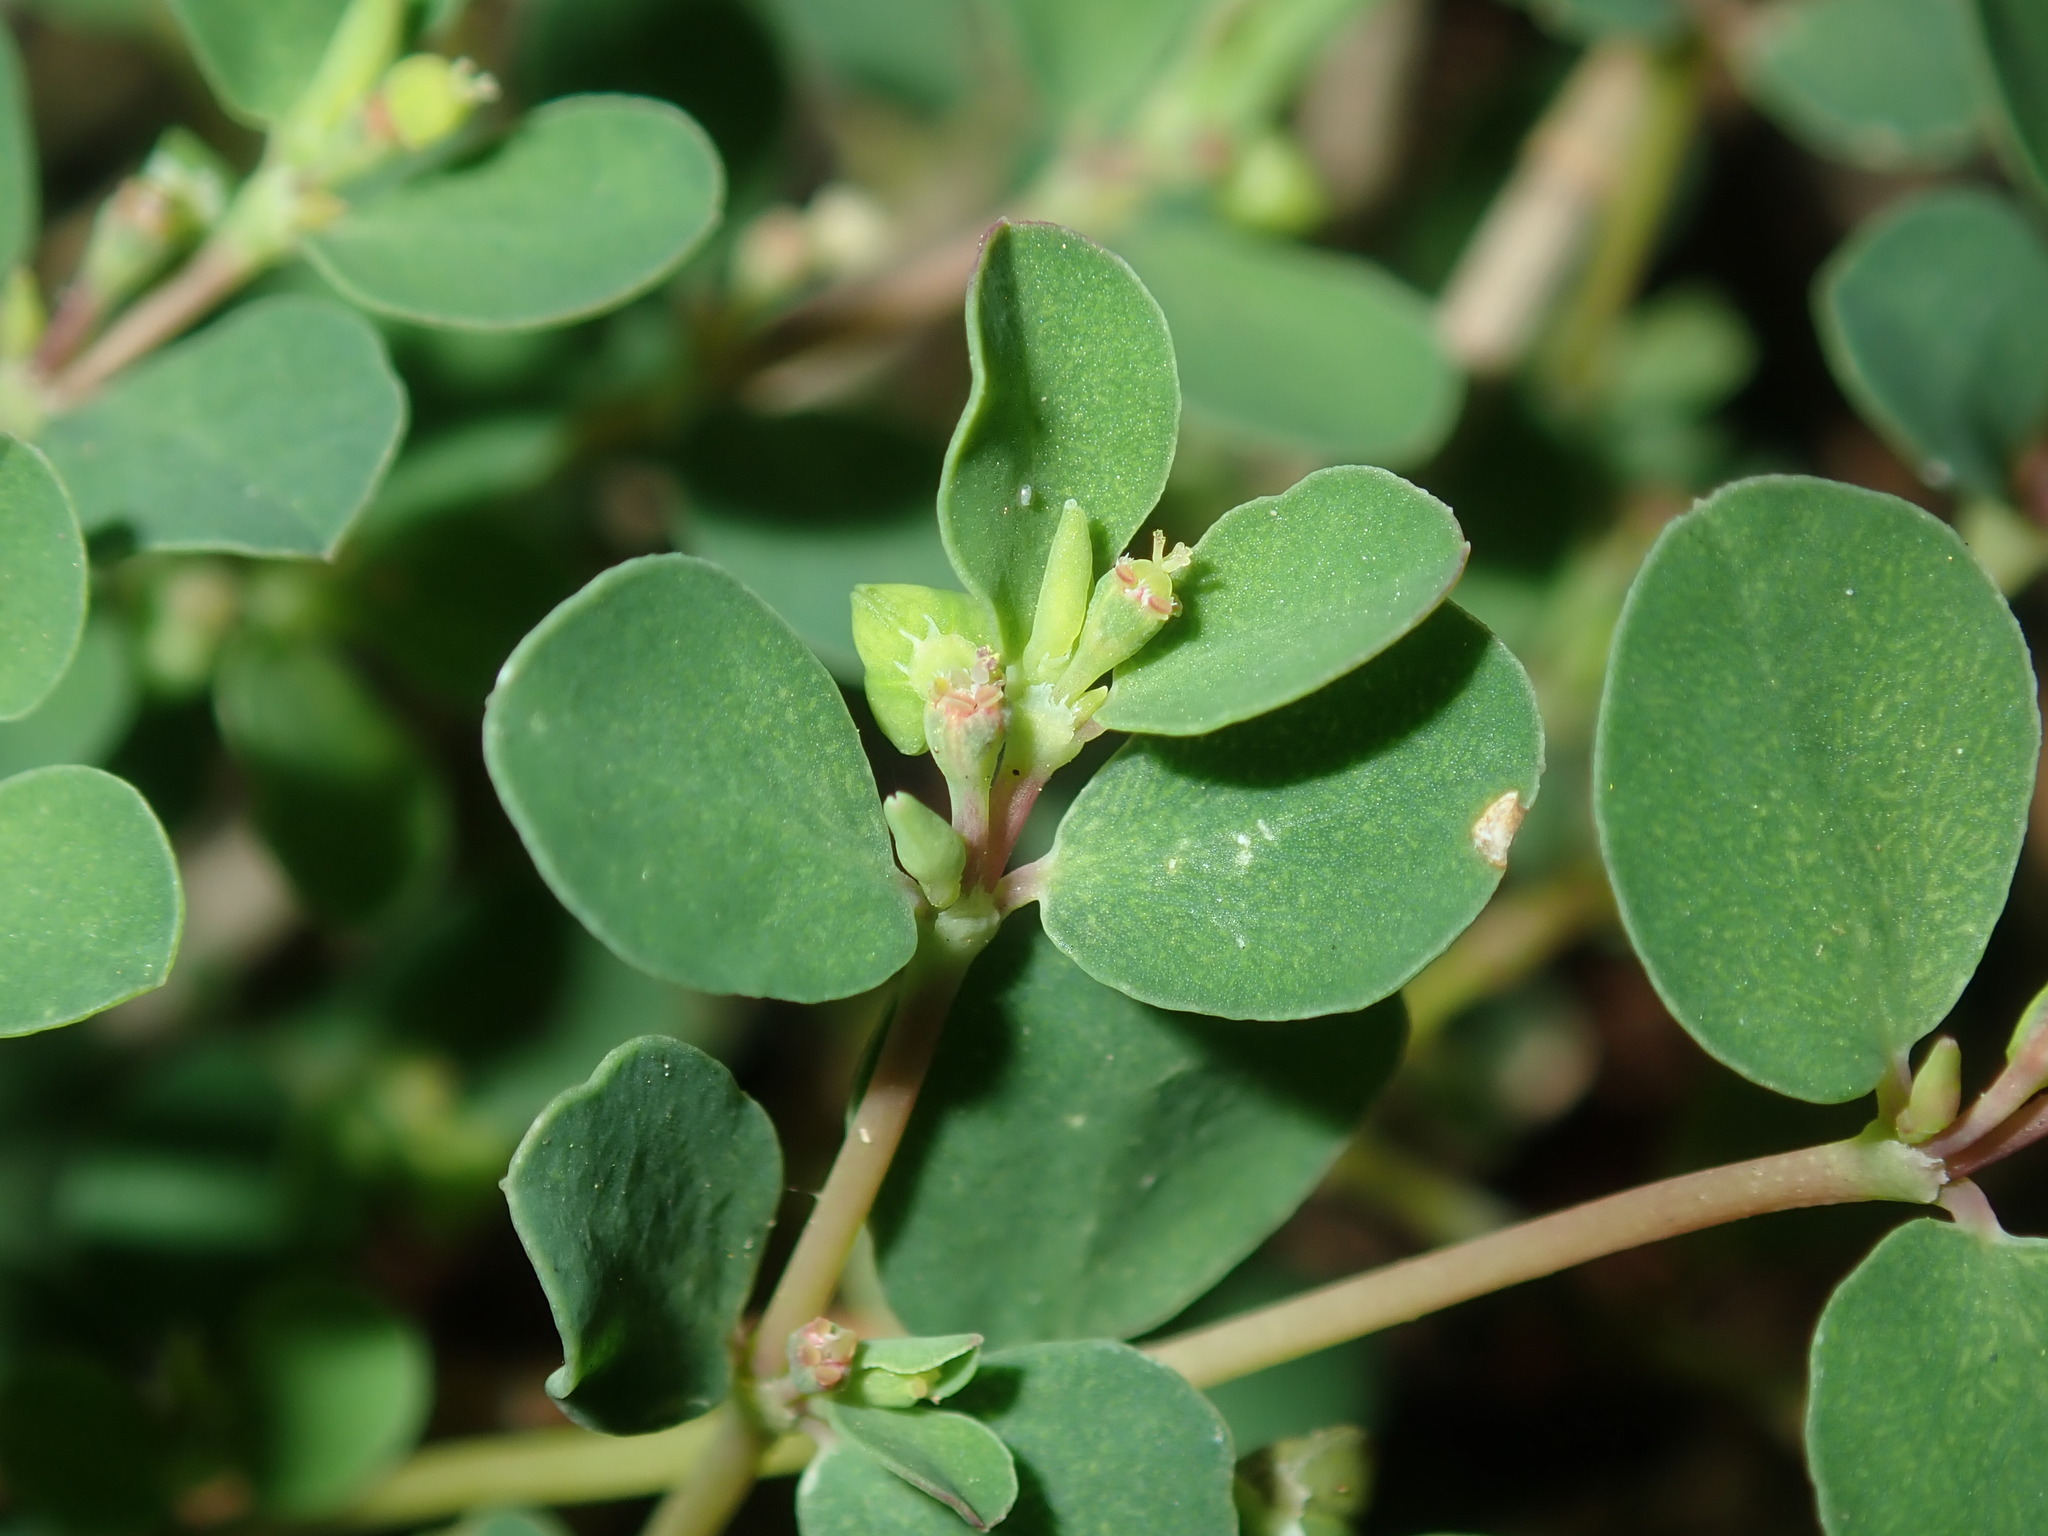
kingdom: Plantae
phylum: Tracheophyta
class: Magnoliopsida
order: Malpighiales
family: Euphorbiaceae
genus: Euphorbia
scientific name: Euphorbia serpens
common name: Matted sandmat
